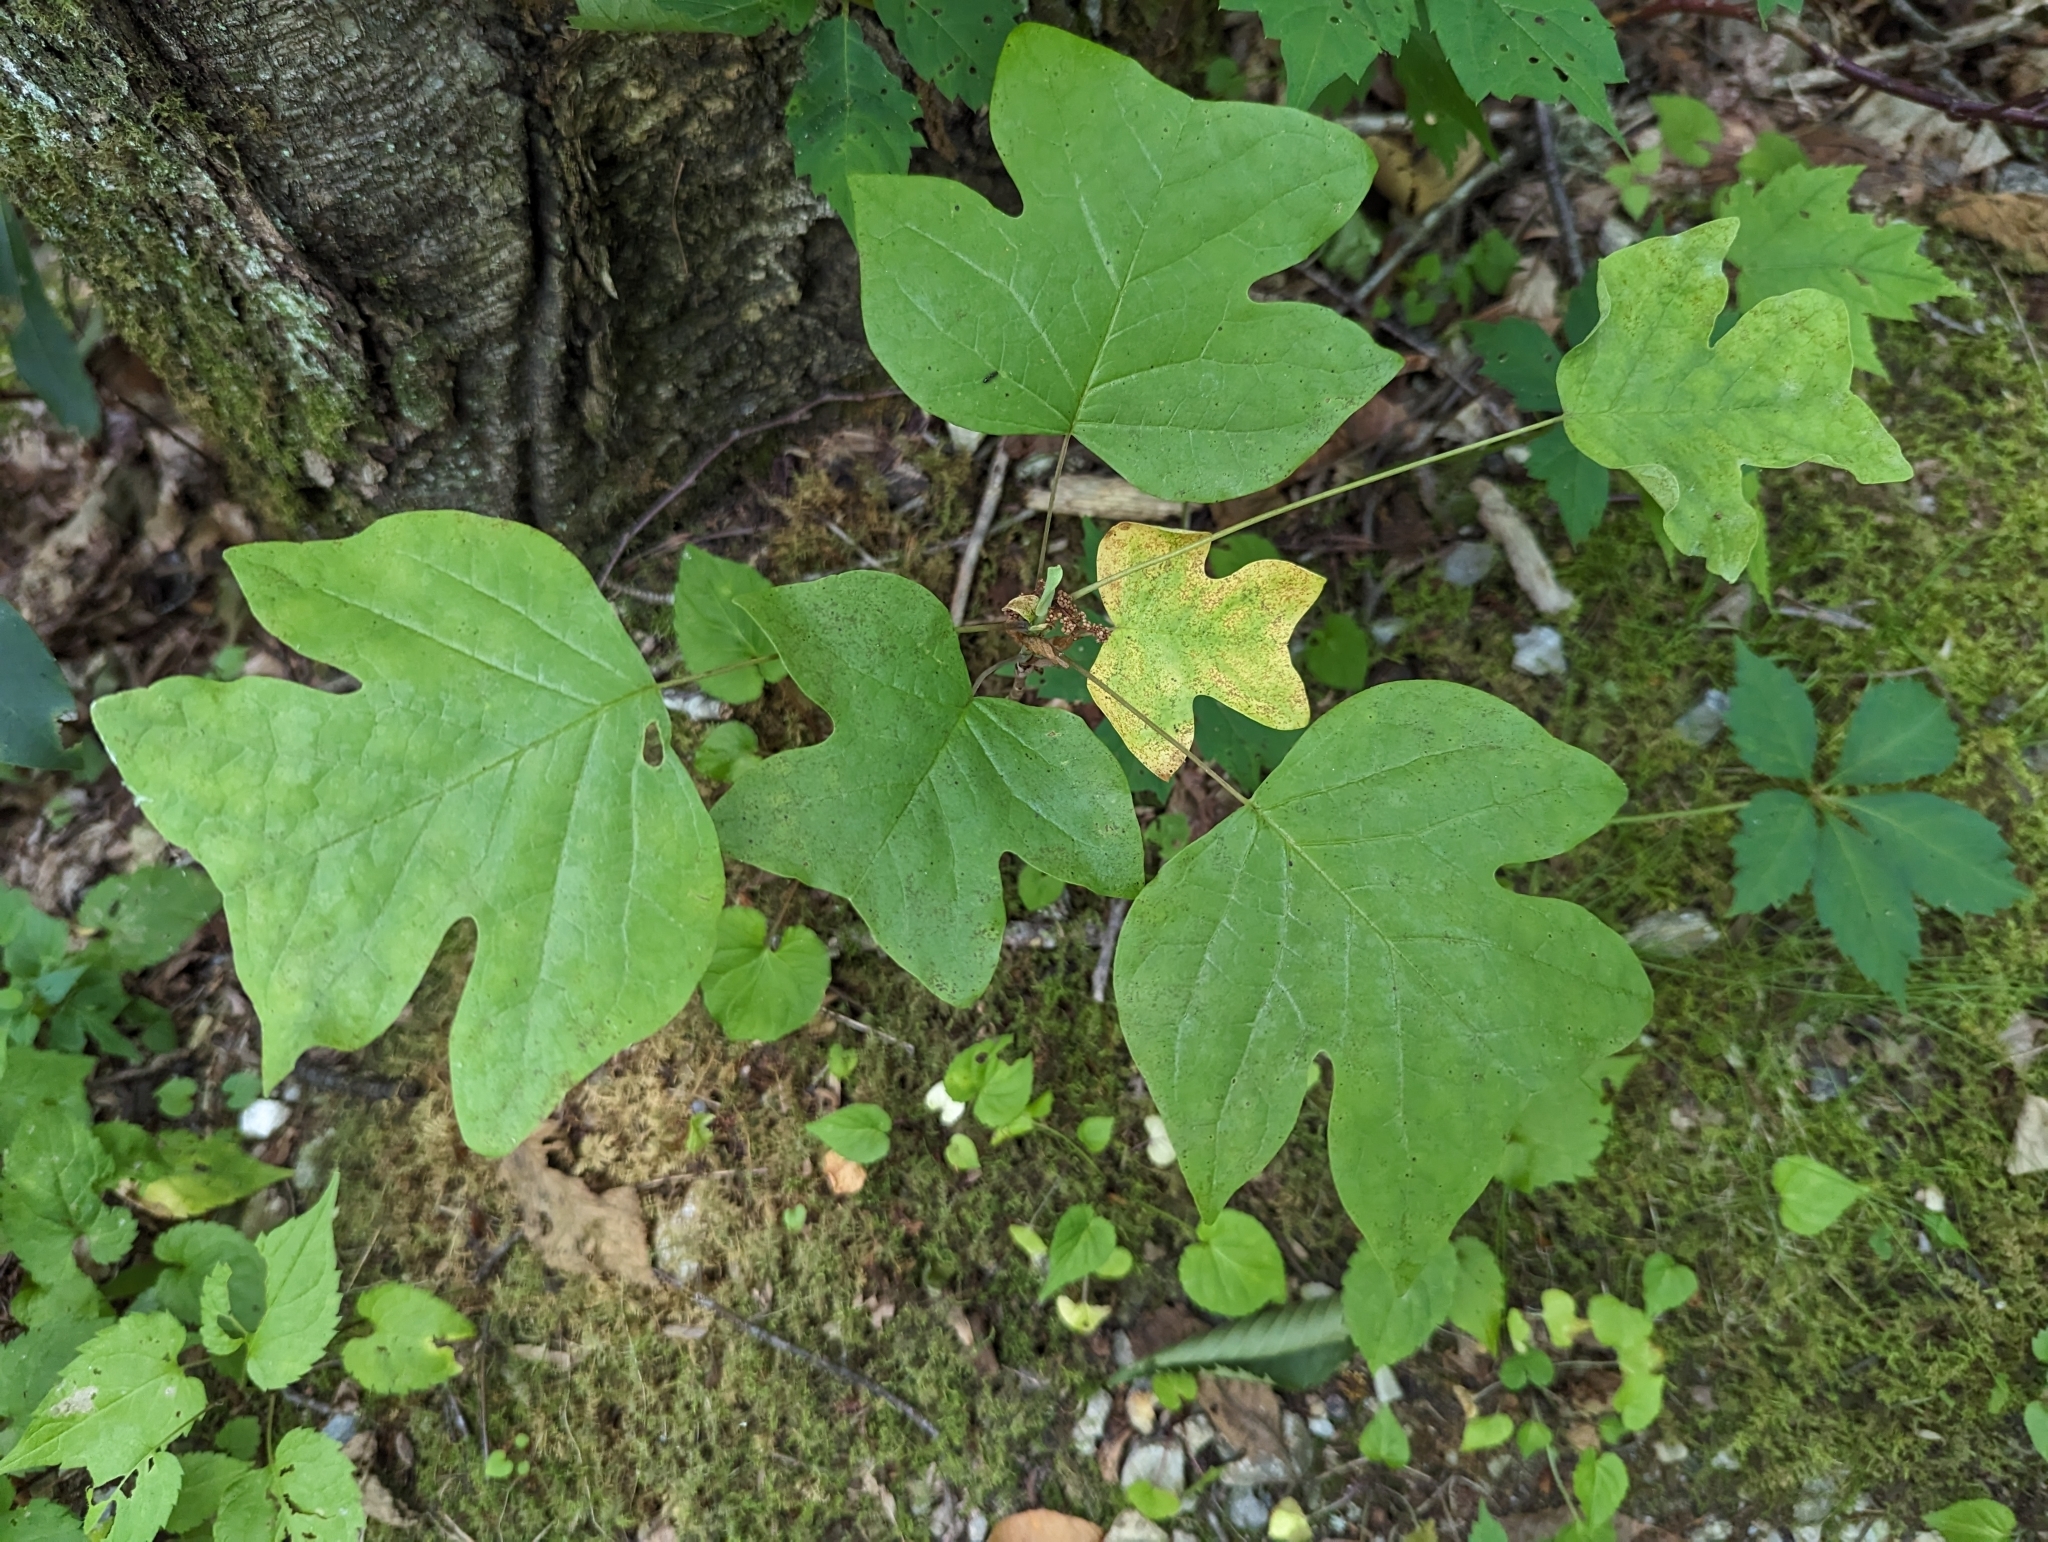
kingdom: Plantae
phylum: Tracheophyta
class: Magnoliopsida
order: Magnoliales
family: Magnoliaceae
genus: Liriodendron
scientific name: Liriodendron tulipifera
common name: Tulip tree
